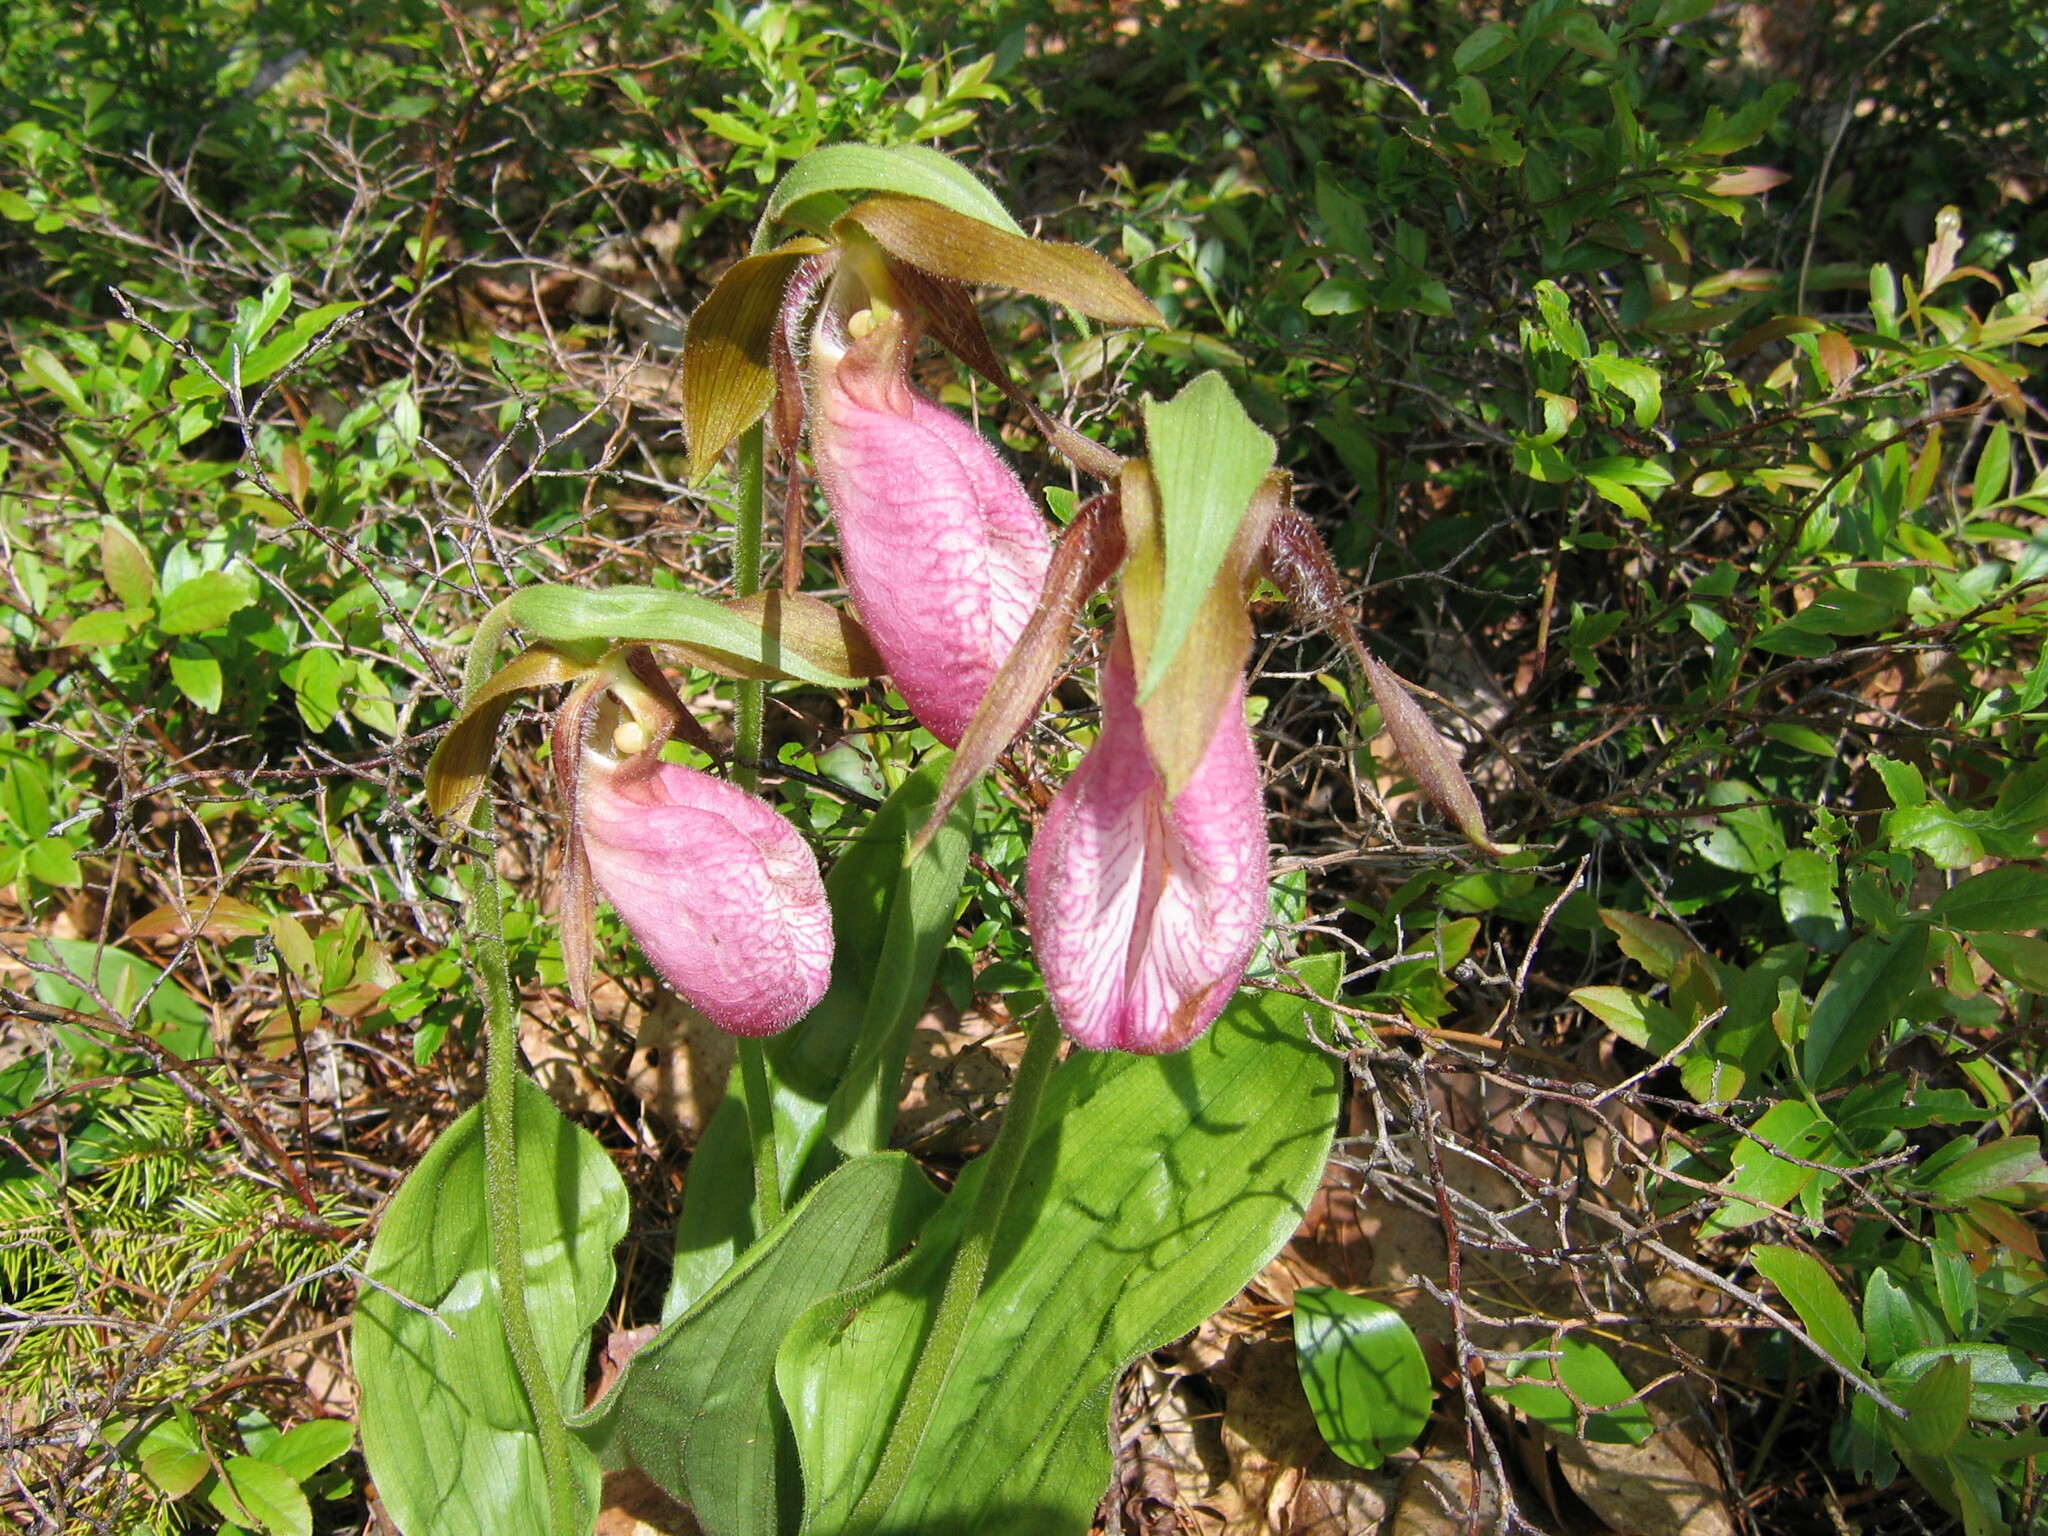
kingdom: Plantae
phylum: Tracheophyta
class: Liliopsida
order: Asparagales
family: Orchidaceae
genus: Cypripedium
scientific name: Cypripedium acaule
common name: Pink lady's-slipper
